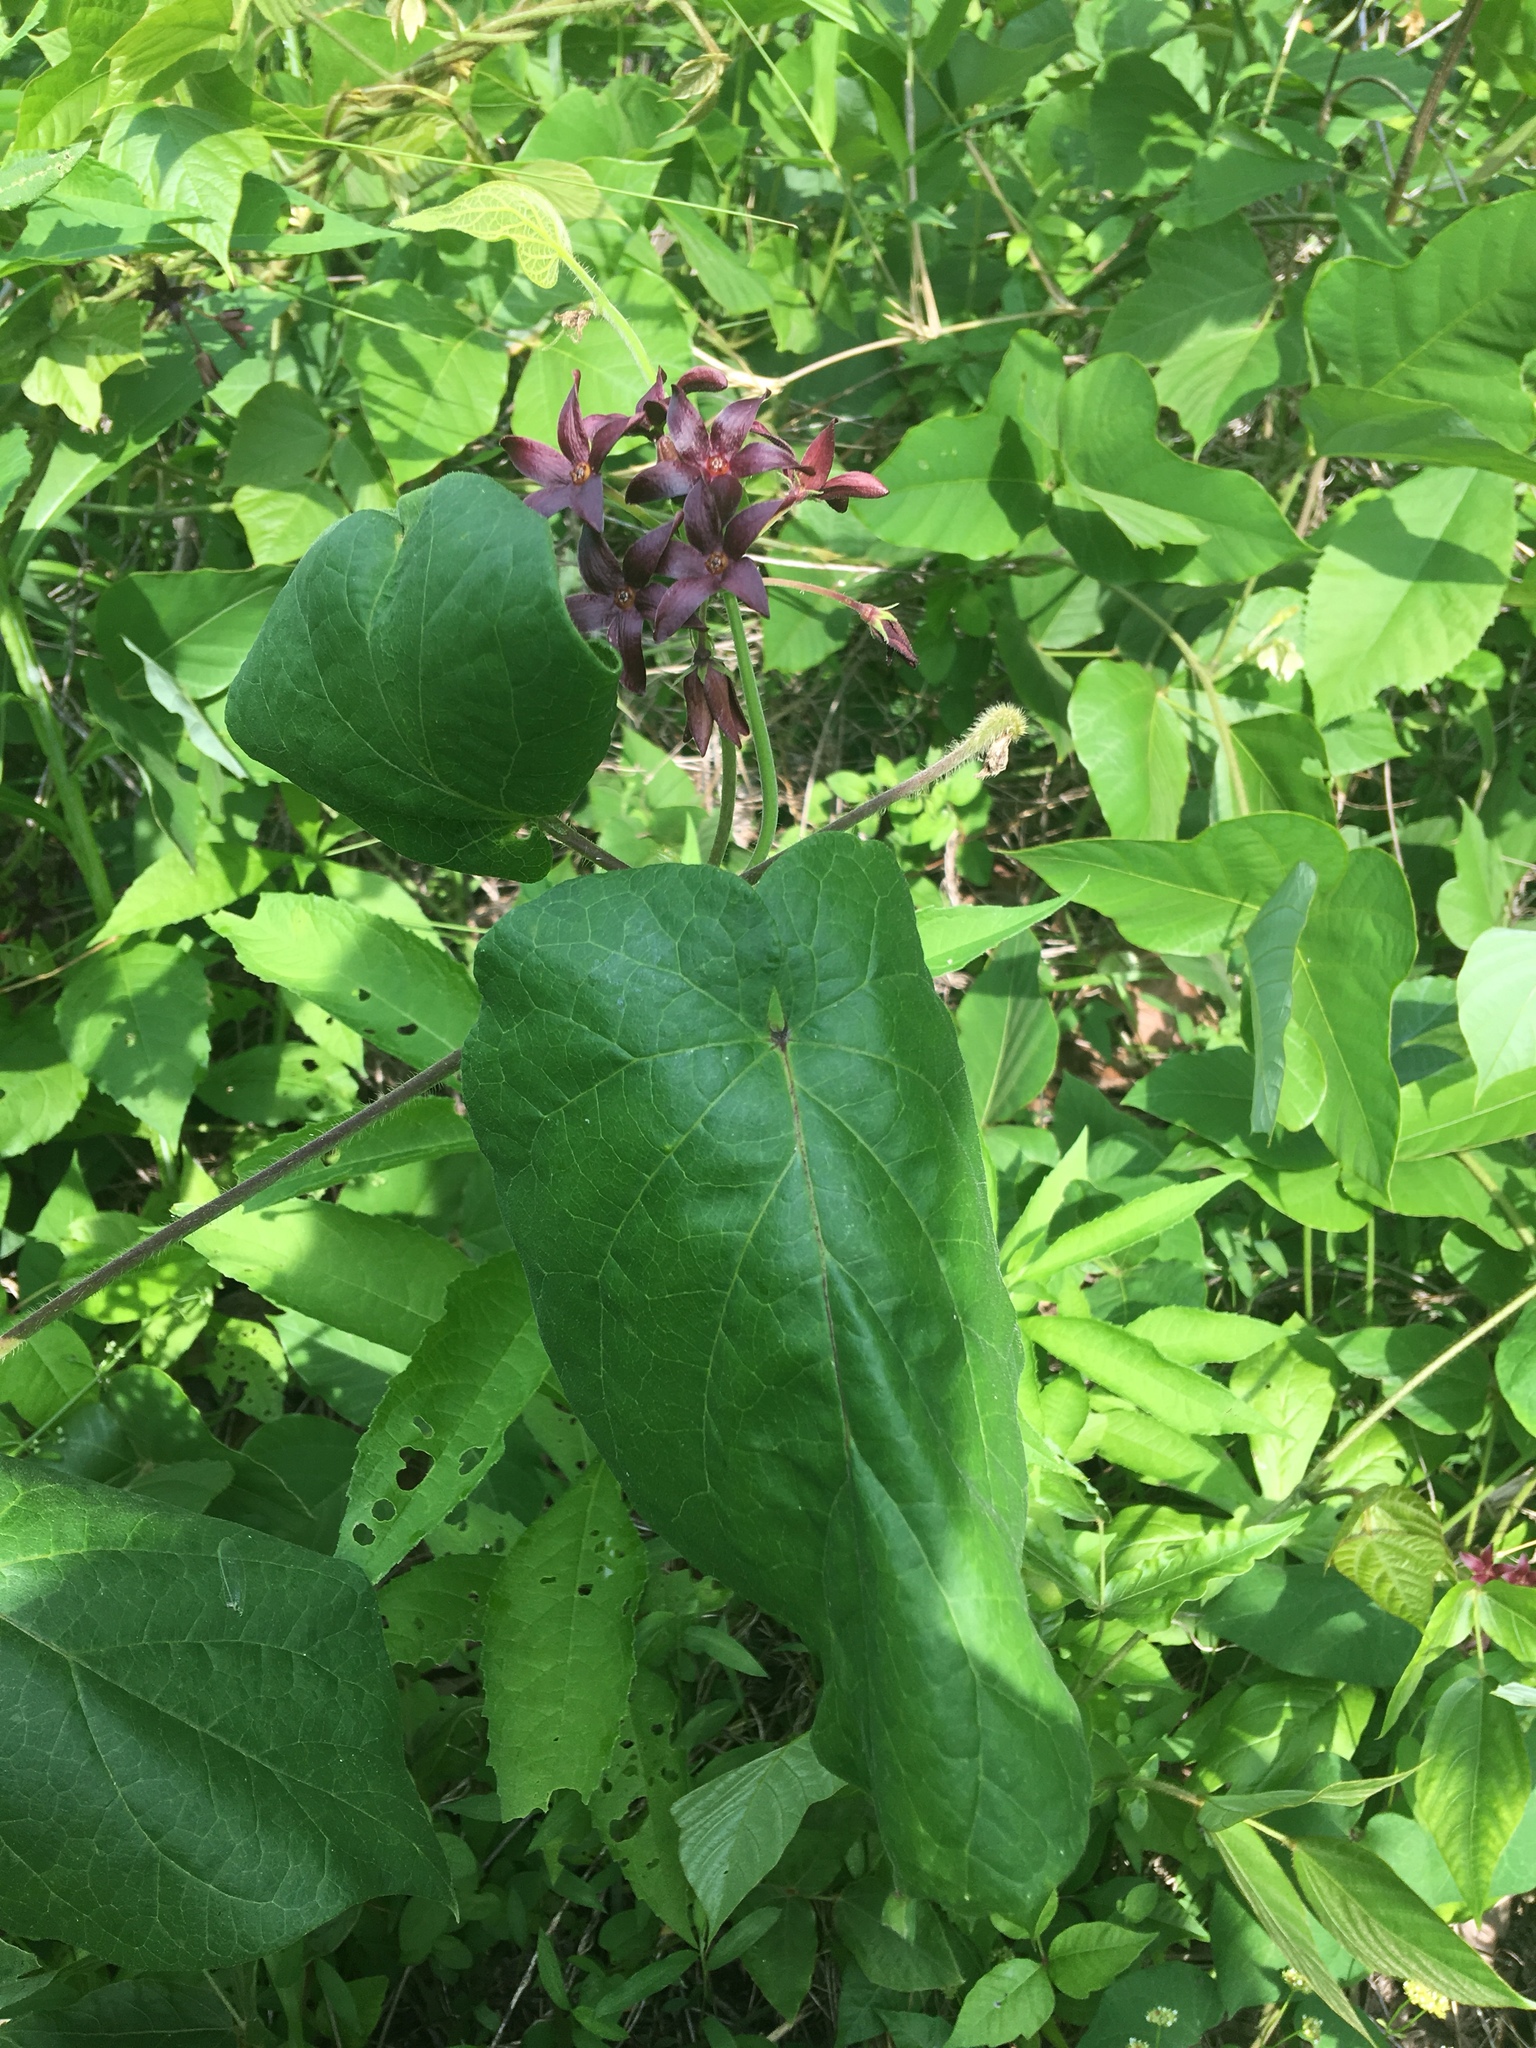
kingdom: Plantae
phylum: Tracheophyta
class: Magnoliopsida
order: Gentianales
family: Apocynaceae
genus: Matelea
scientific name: Matelea carolinensis
